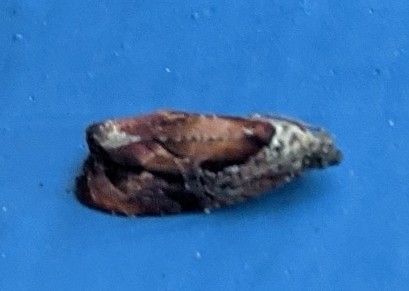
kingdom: Animalia
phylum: Arthropoda
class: Insecta
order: Lepidoptera
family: Tortricidae
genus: Zomaria
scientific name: Zomaria interruptolineana
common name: Broken-lined zomaria moth
